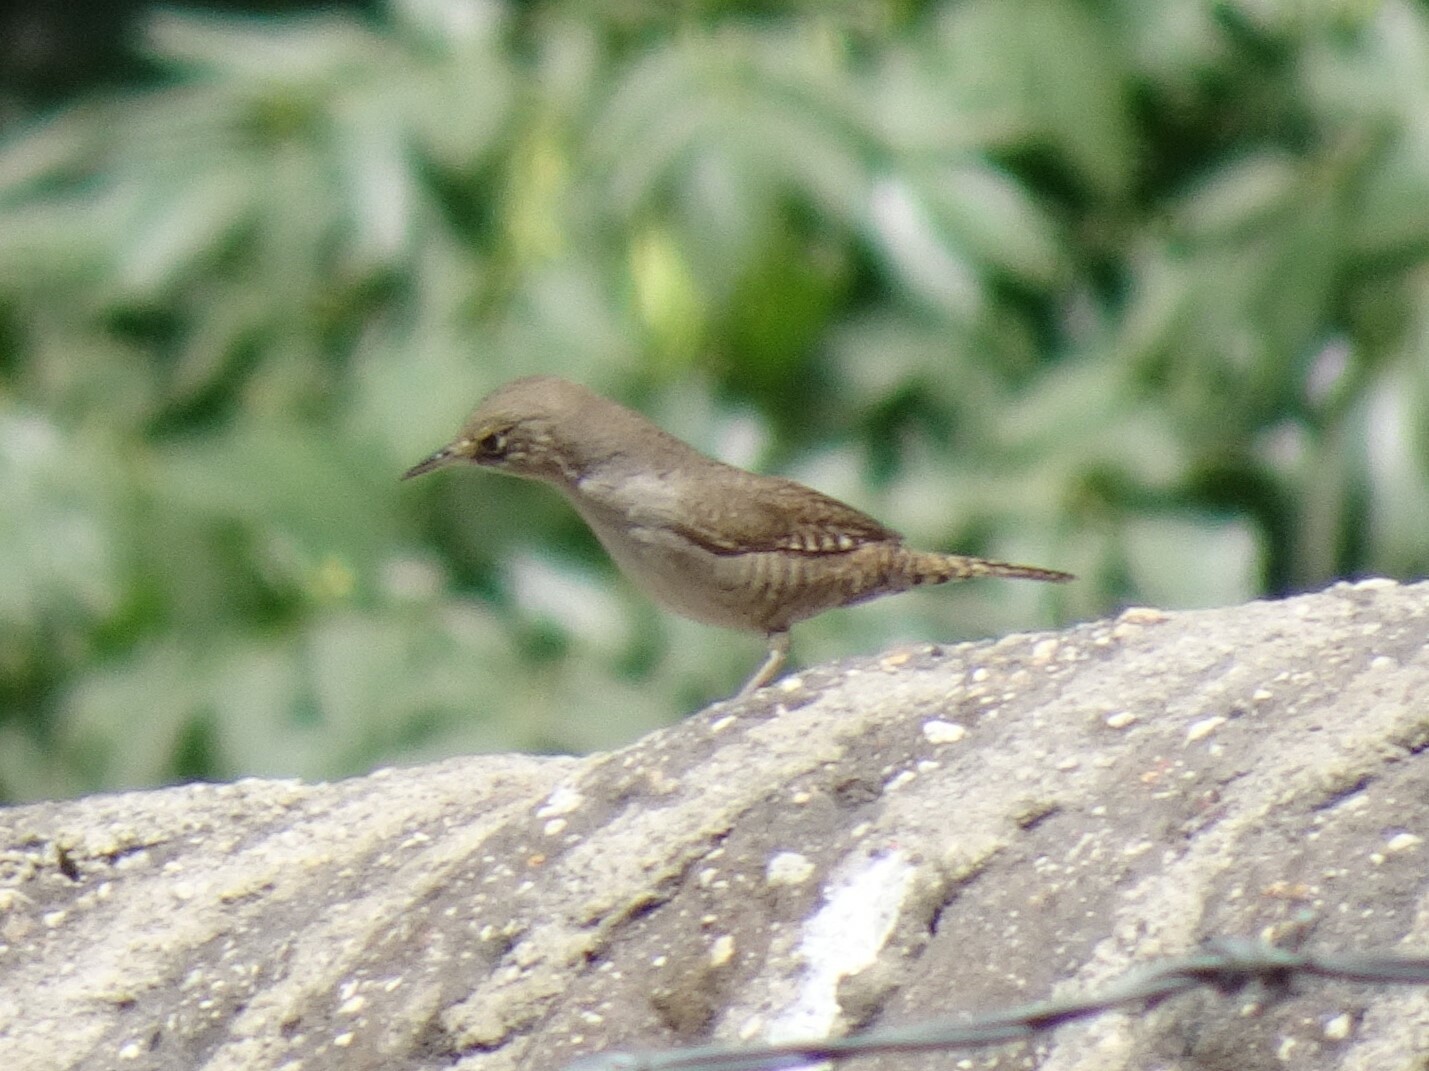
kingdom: Animalia
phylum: Chordata
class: Aves
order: Passeriformes
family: Troglodytidae
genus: Troglodytes
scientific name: Troglodytes aedon
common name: House wren
